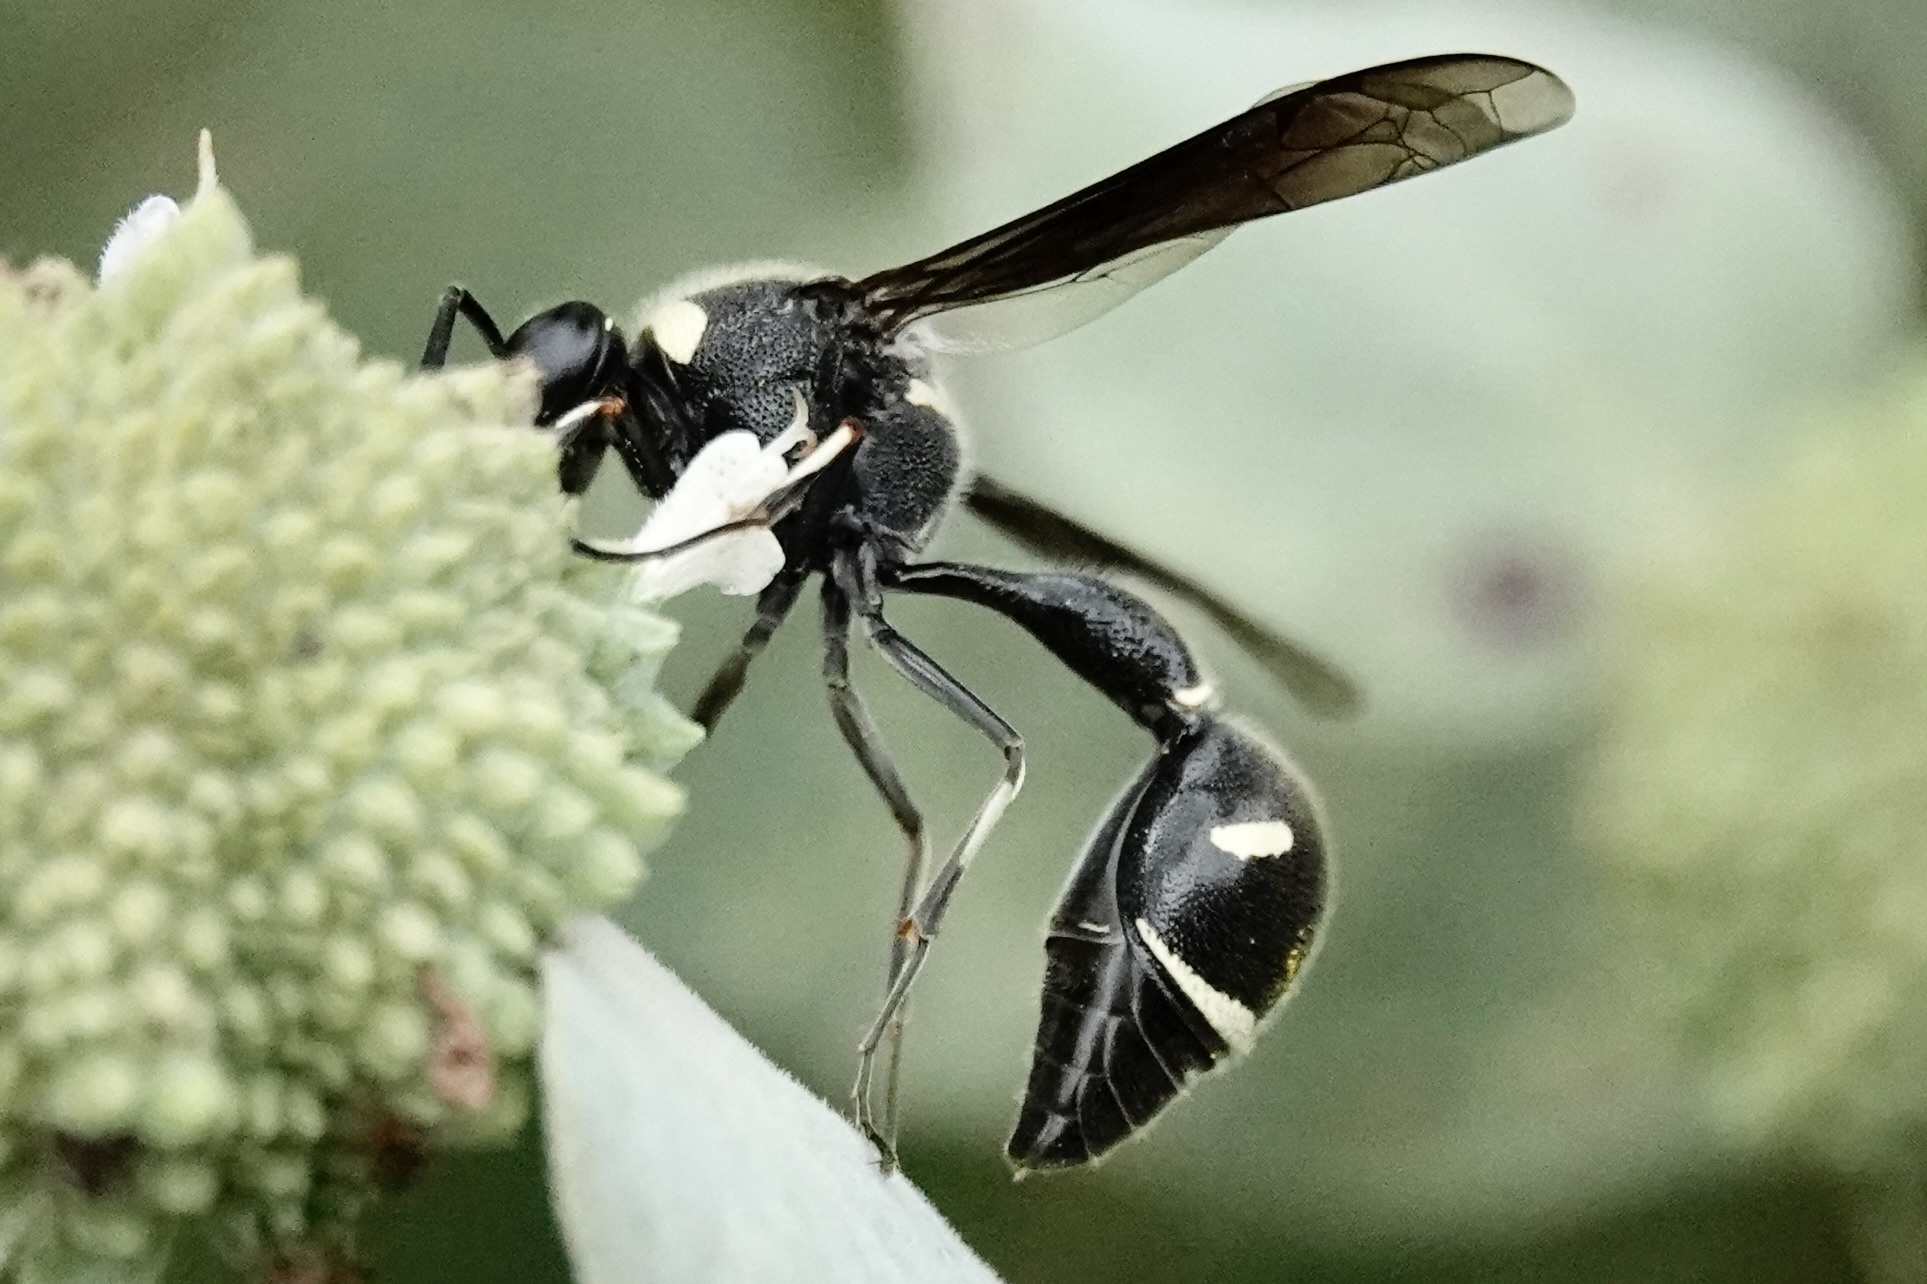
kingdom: Animalia
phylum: Arthropoda
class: Insecta
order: Hymenoptera
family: Vespidae
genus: Eumenes
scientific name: Eumenes fraternus
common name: Fraternal potter wasp
